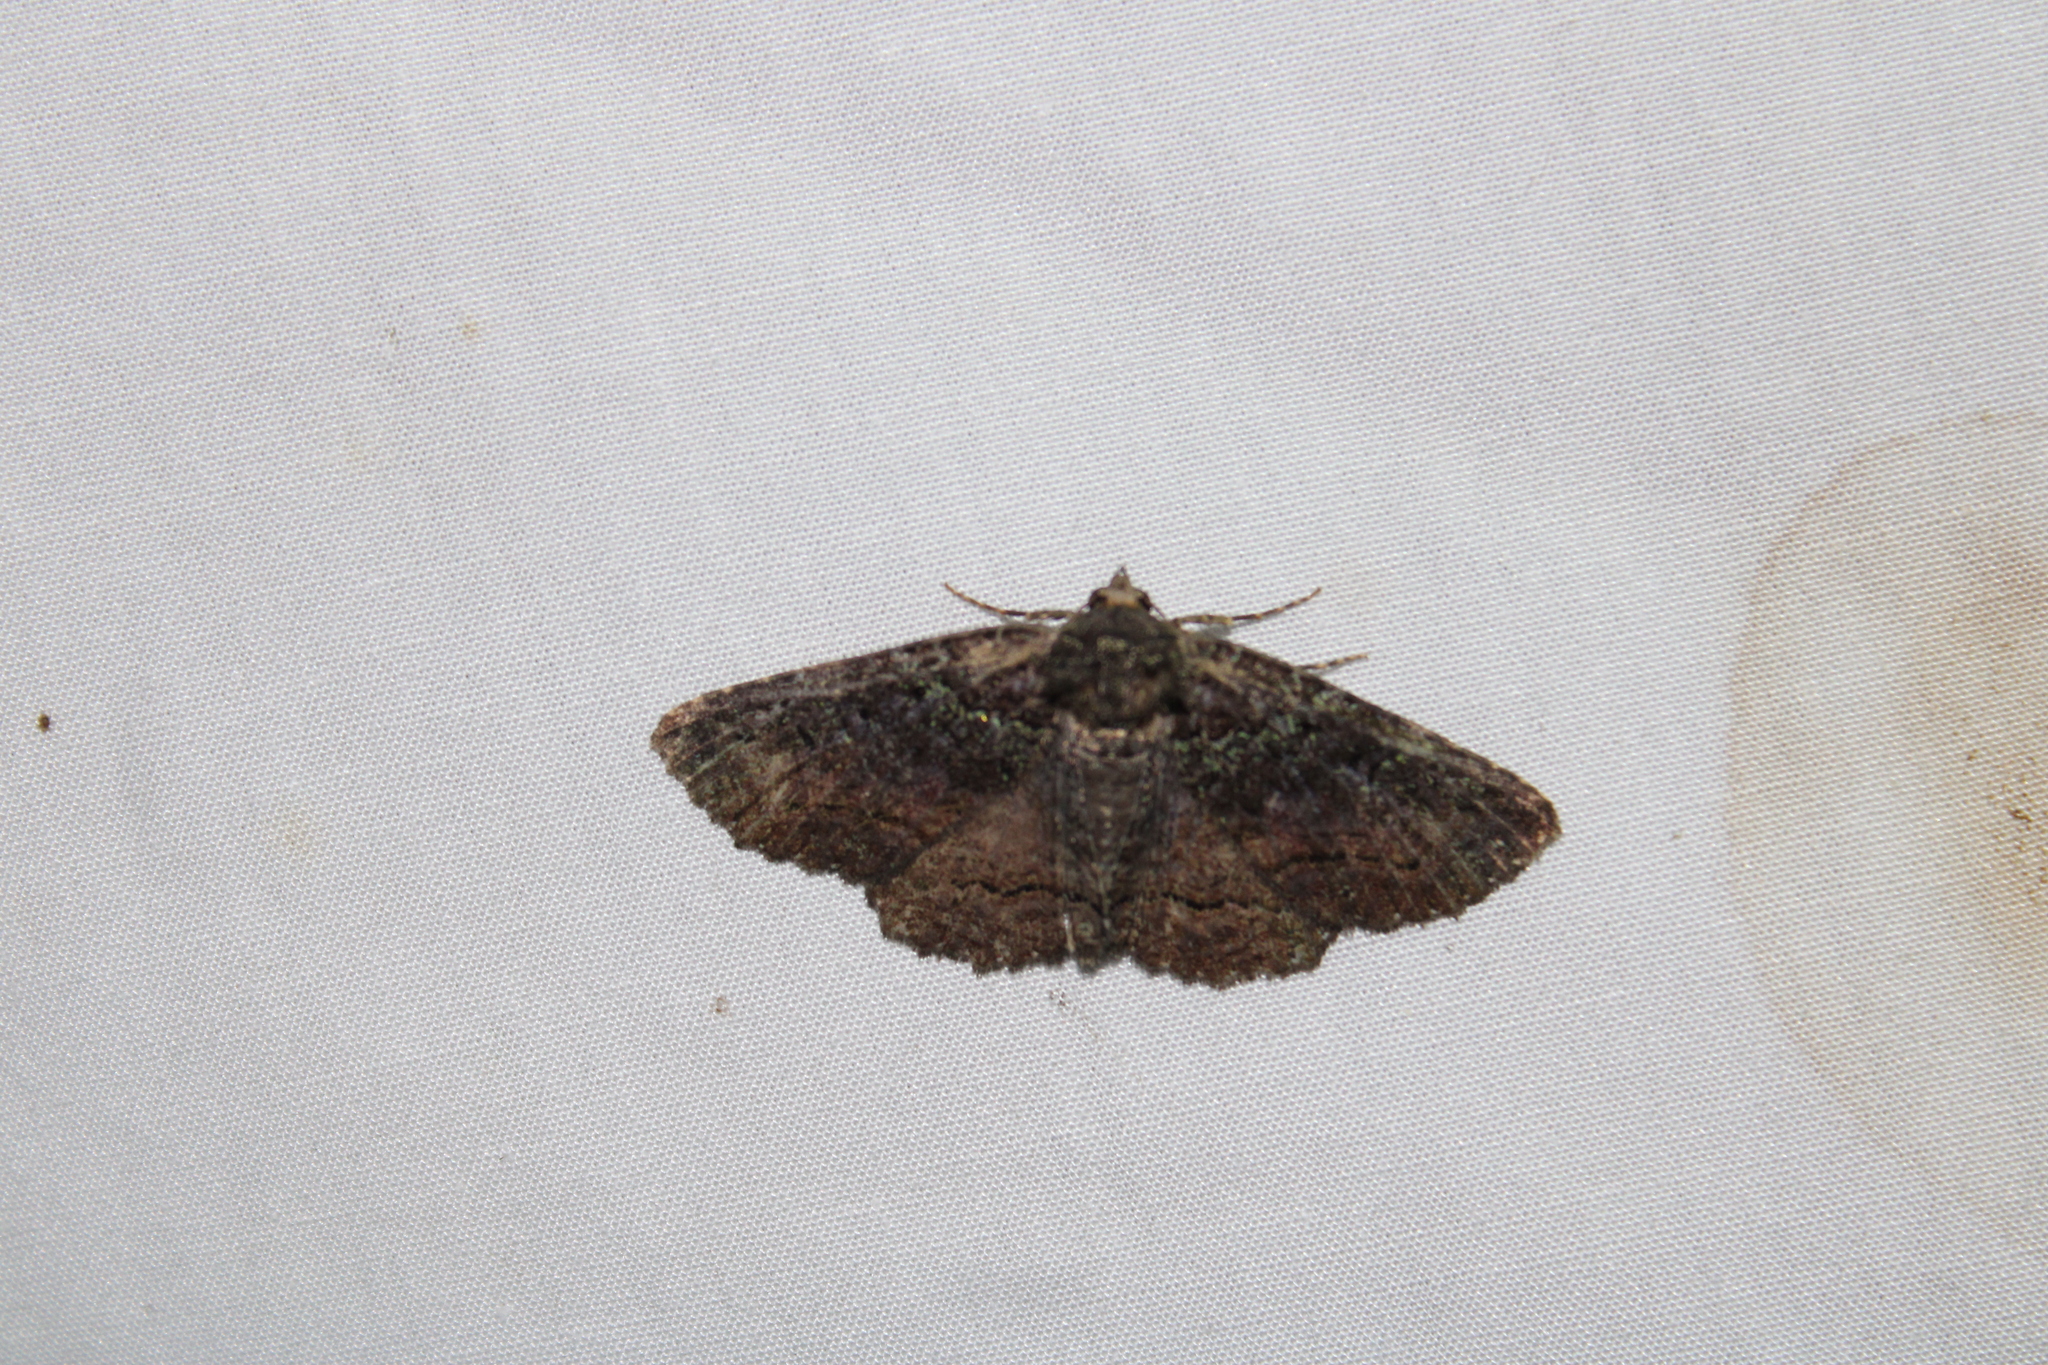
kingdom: Animalia
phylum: Arthropoda
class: Insecta
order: Lepidoptera
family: Erebidae
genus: Zale
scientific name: Zale aeruginosa
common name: Green-dusted zale moth
